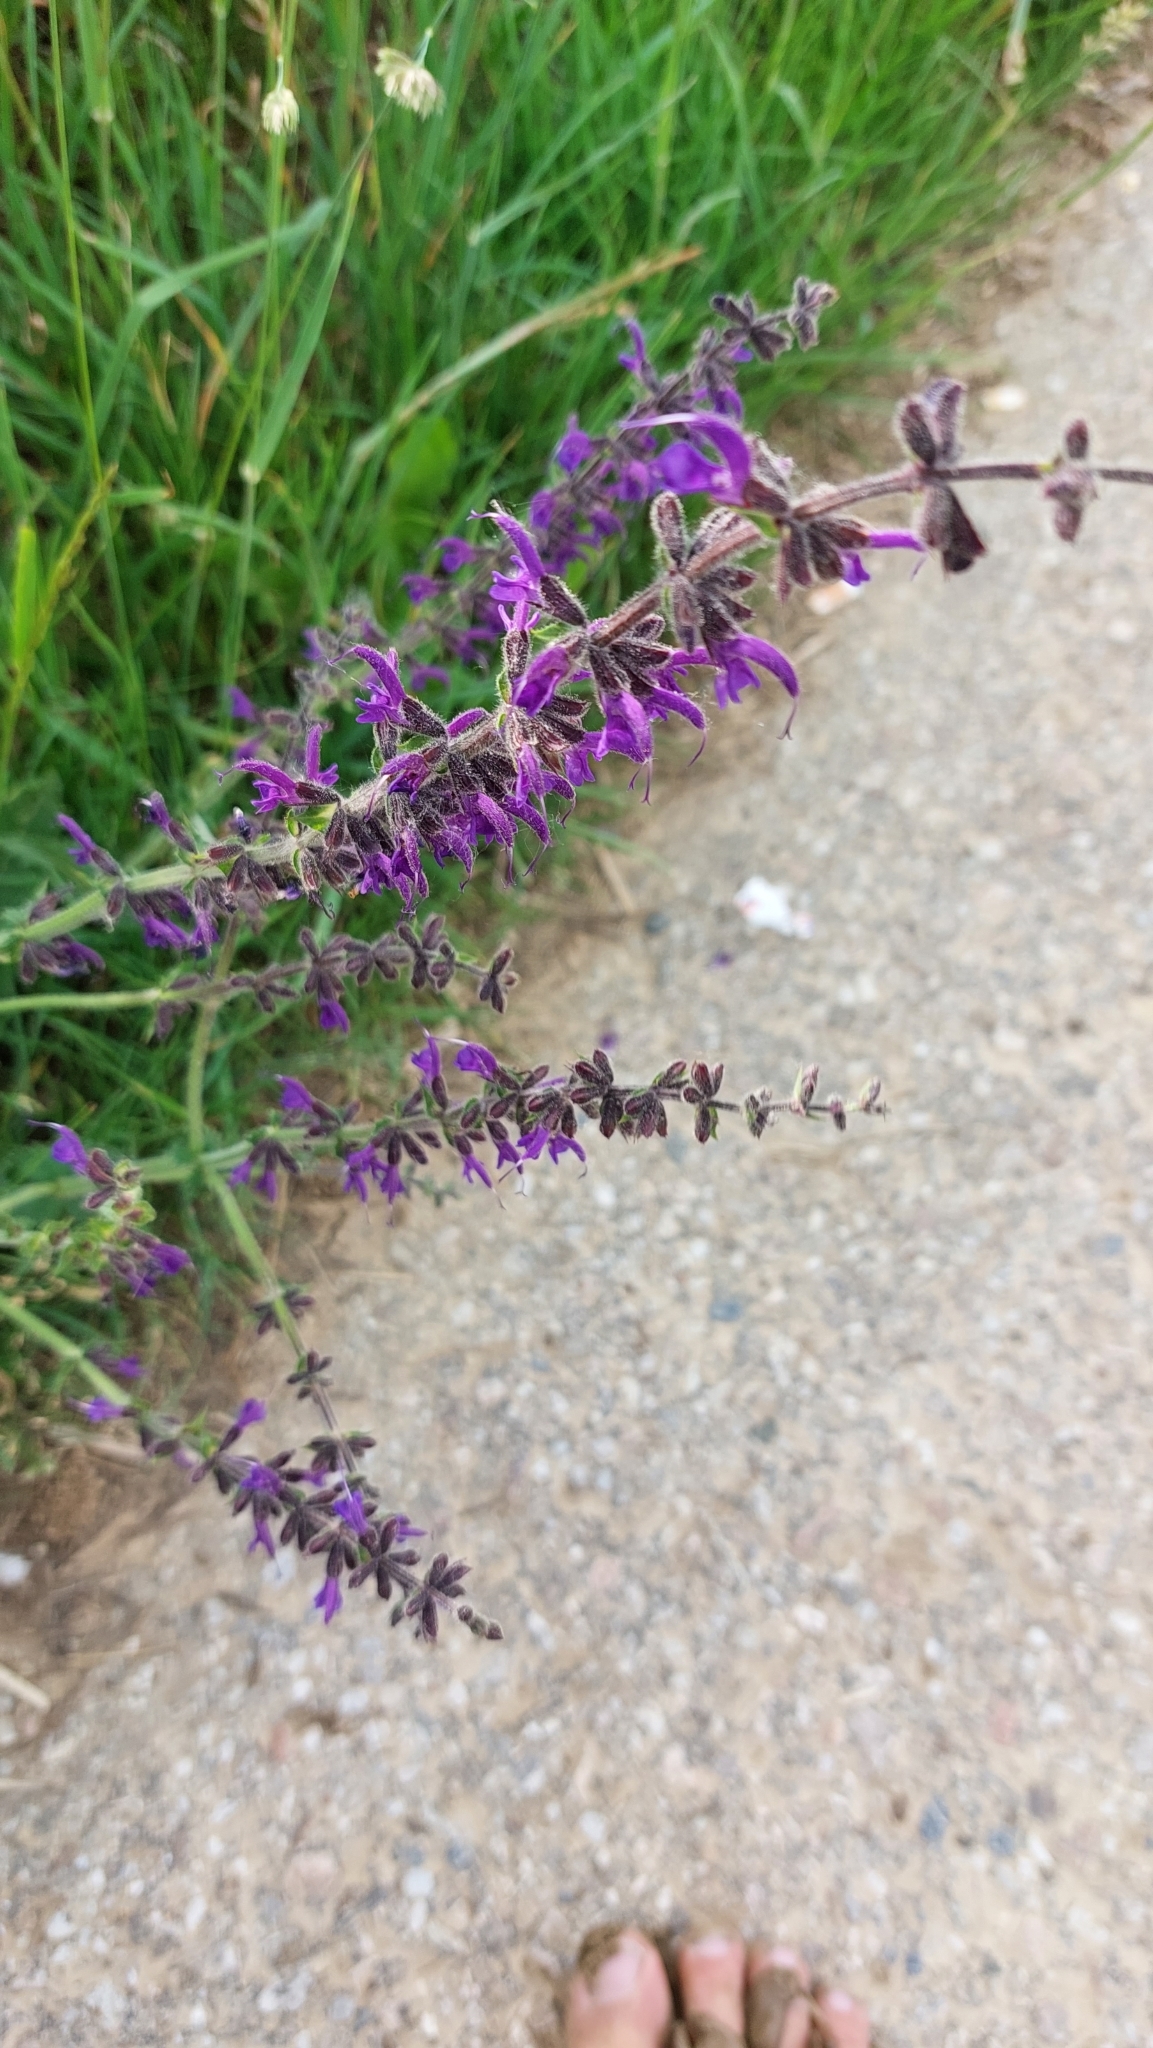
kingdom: Plantae
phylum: Tracheophyta
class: Magnoliopsida
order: Lamiales
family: Lamiaceae
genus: Salvia
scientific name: Salvia pratensis
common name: Meadow sage
